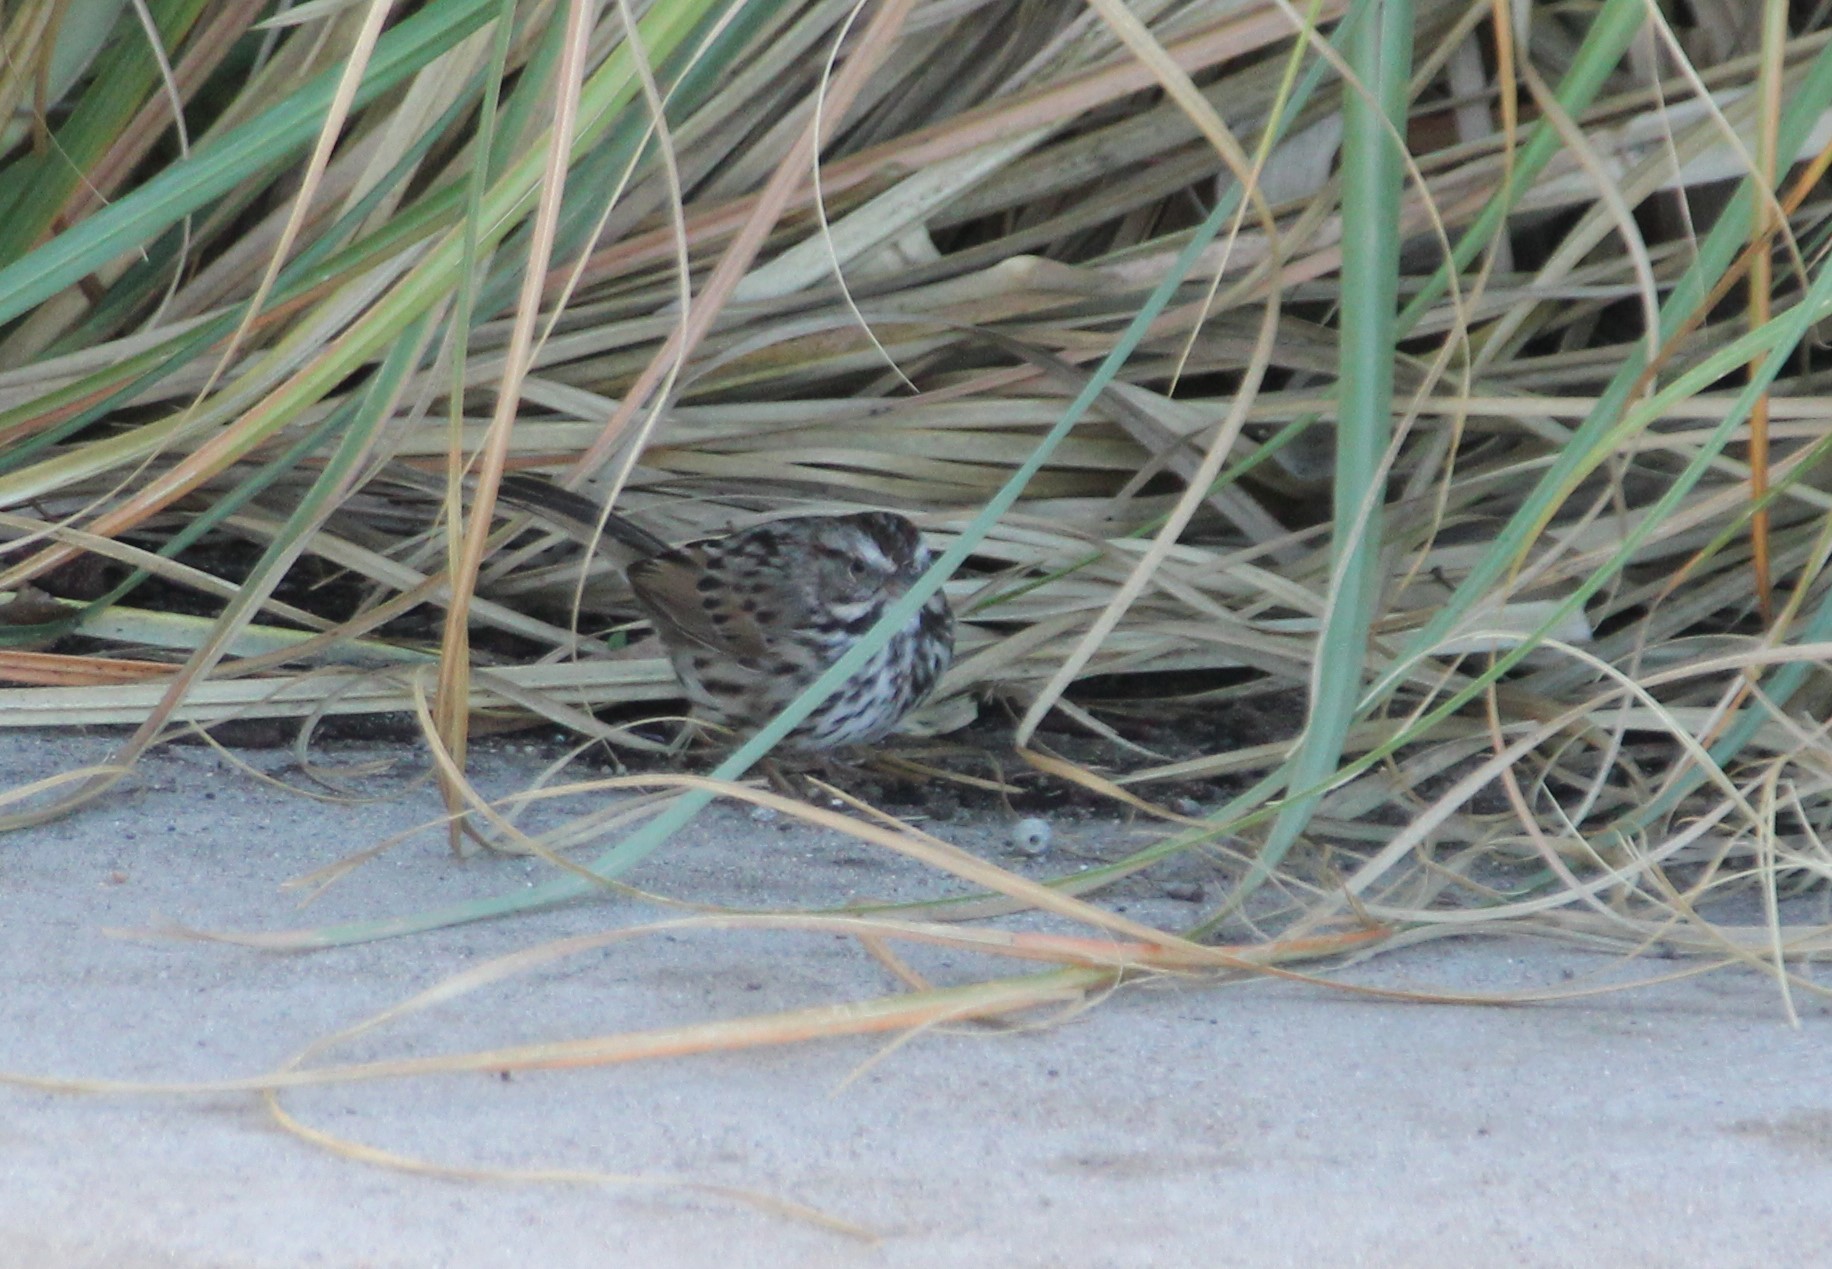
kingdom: Animalia
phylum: Chordata
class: Aves
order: Passeriformes
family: Passerellidae
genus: Melospiza
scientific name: Melospiza melodia
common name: Song sparrow
